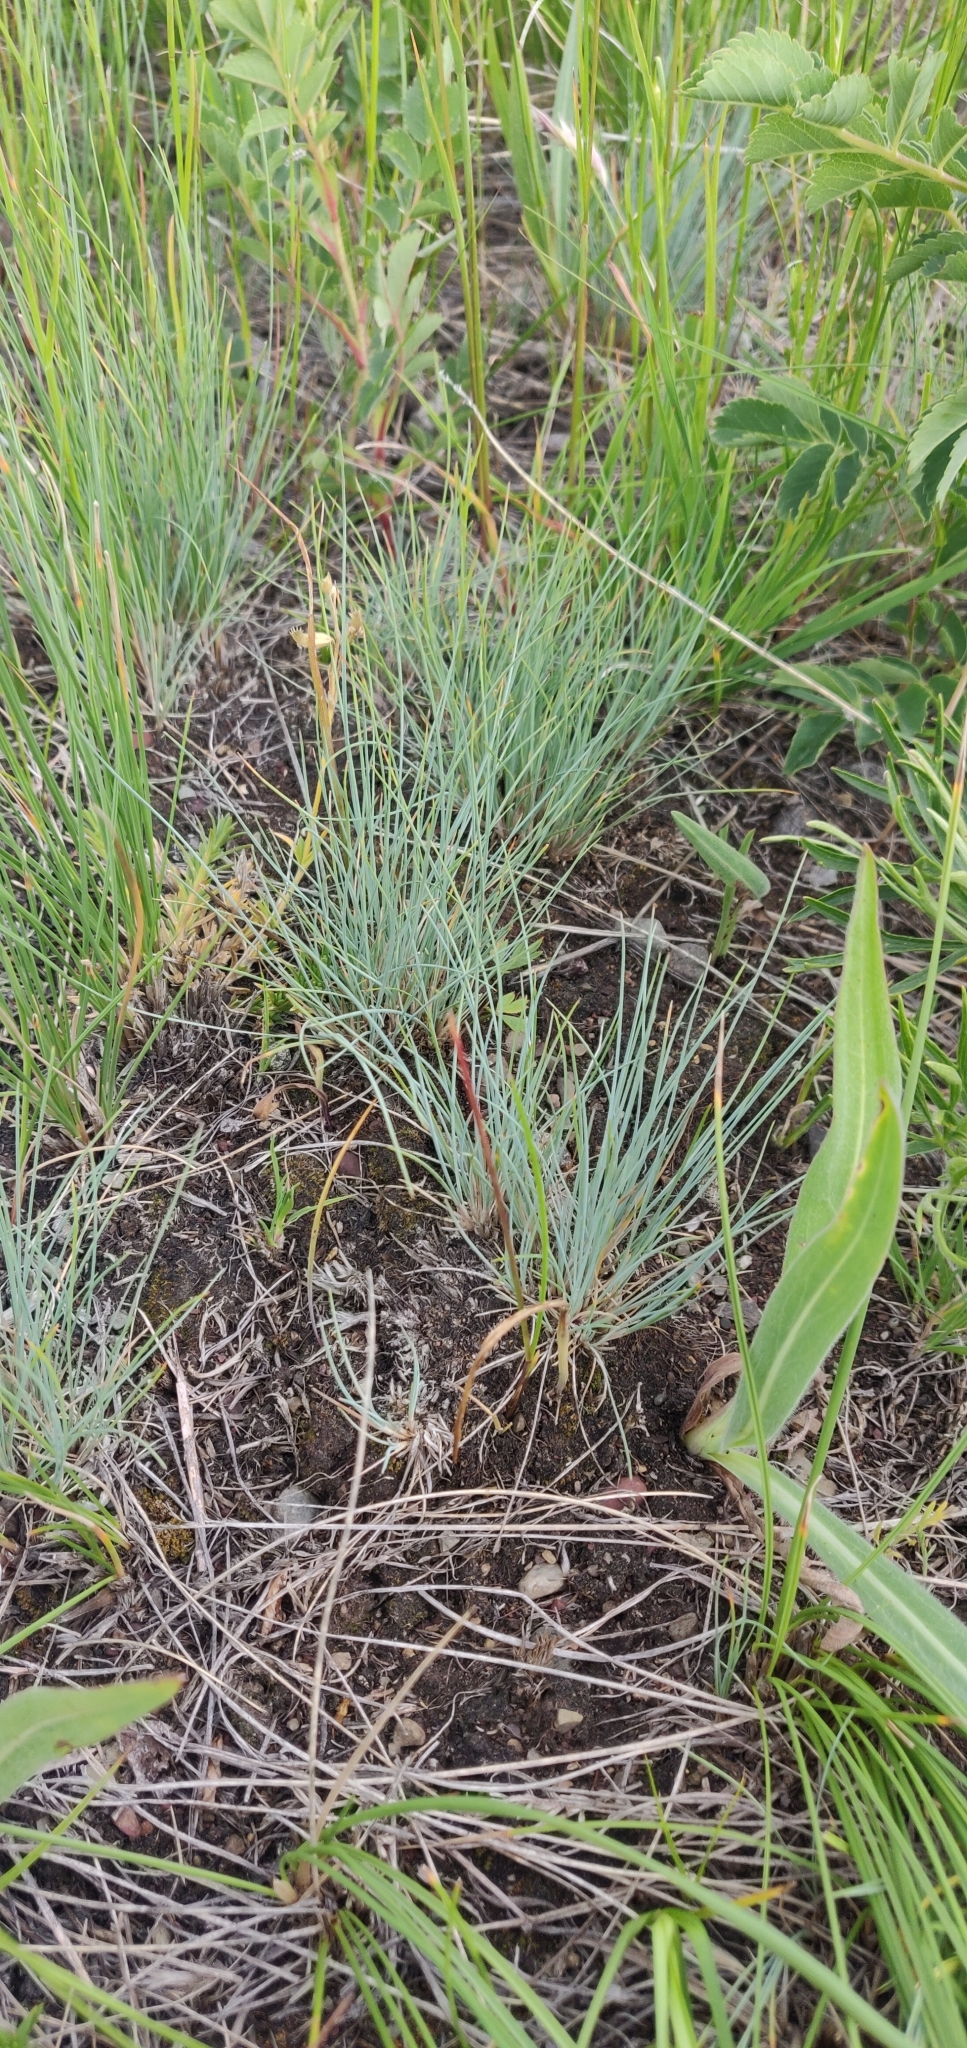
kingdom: Plantae
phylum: Tracheophyta
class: Liliopsida
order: Poales
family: Poaceae
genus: Festuca
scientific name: Festuca idahoensis
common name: Idaho fescue
